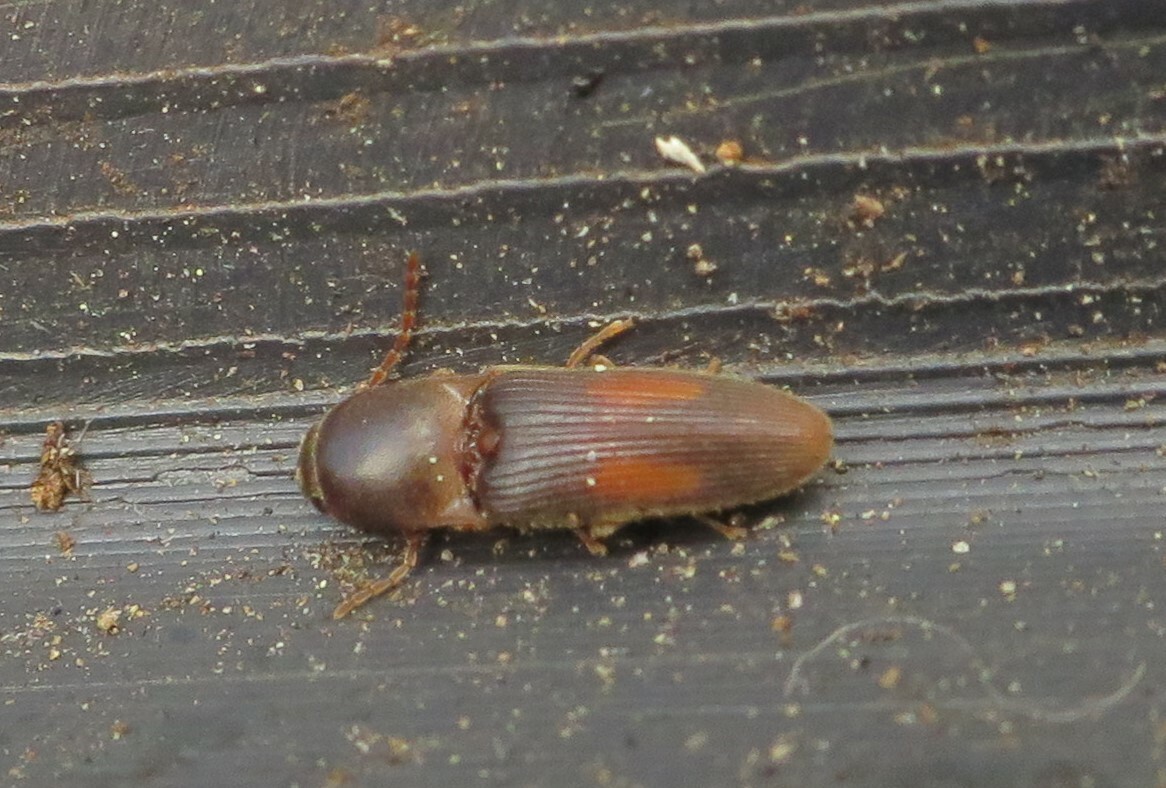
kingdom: Animalia
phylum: Arthropoda
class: Insecta
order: Coleoptera
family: Elateridae
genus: Monocrepidius
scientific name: Monocrepidius posticus
